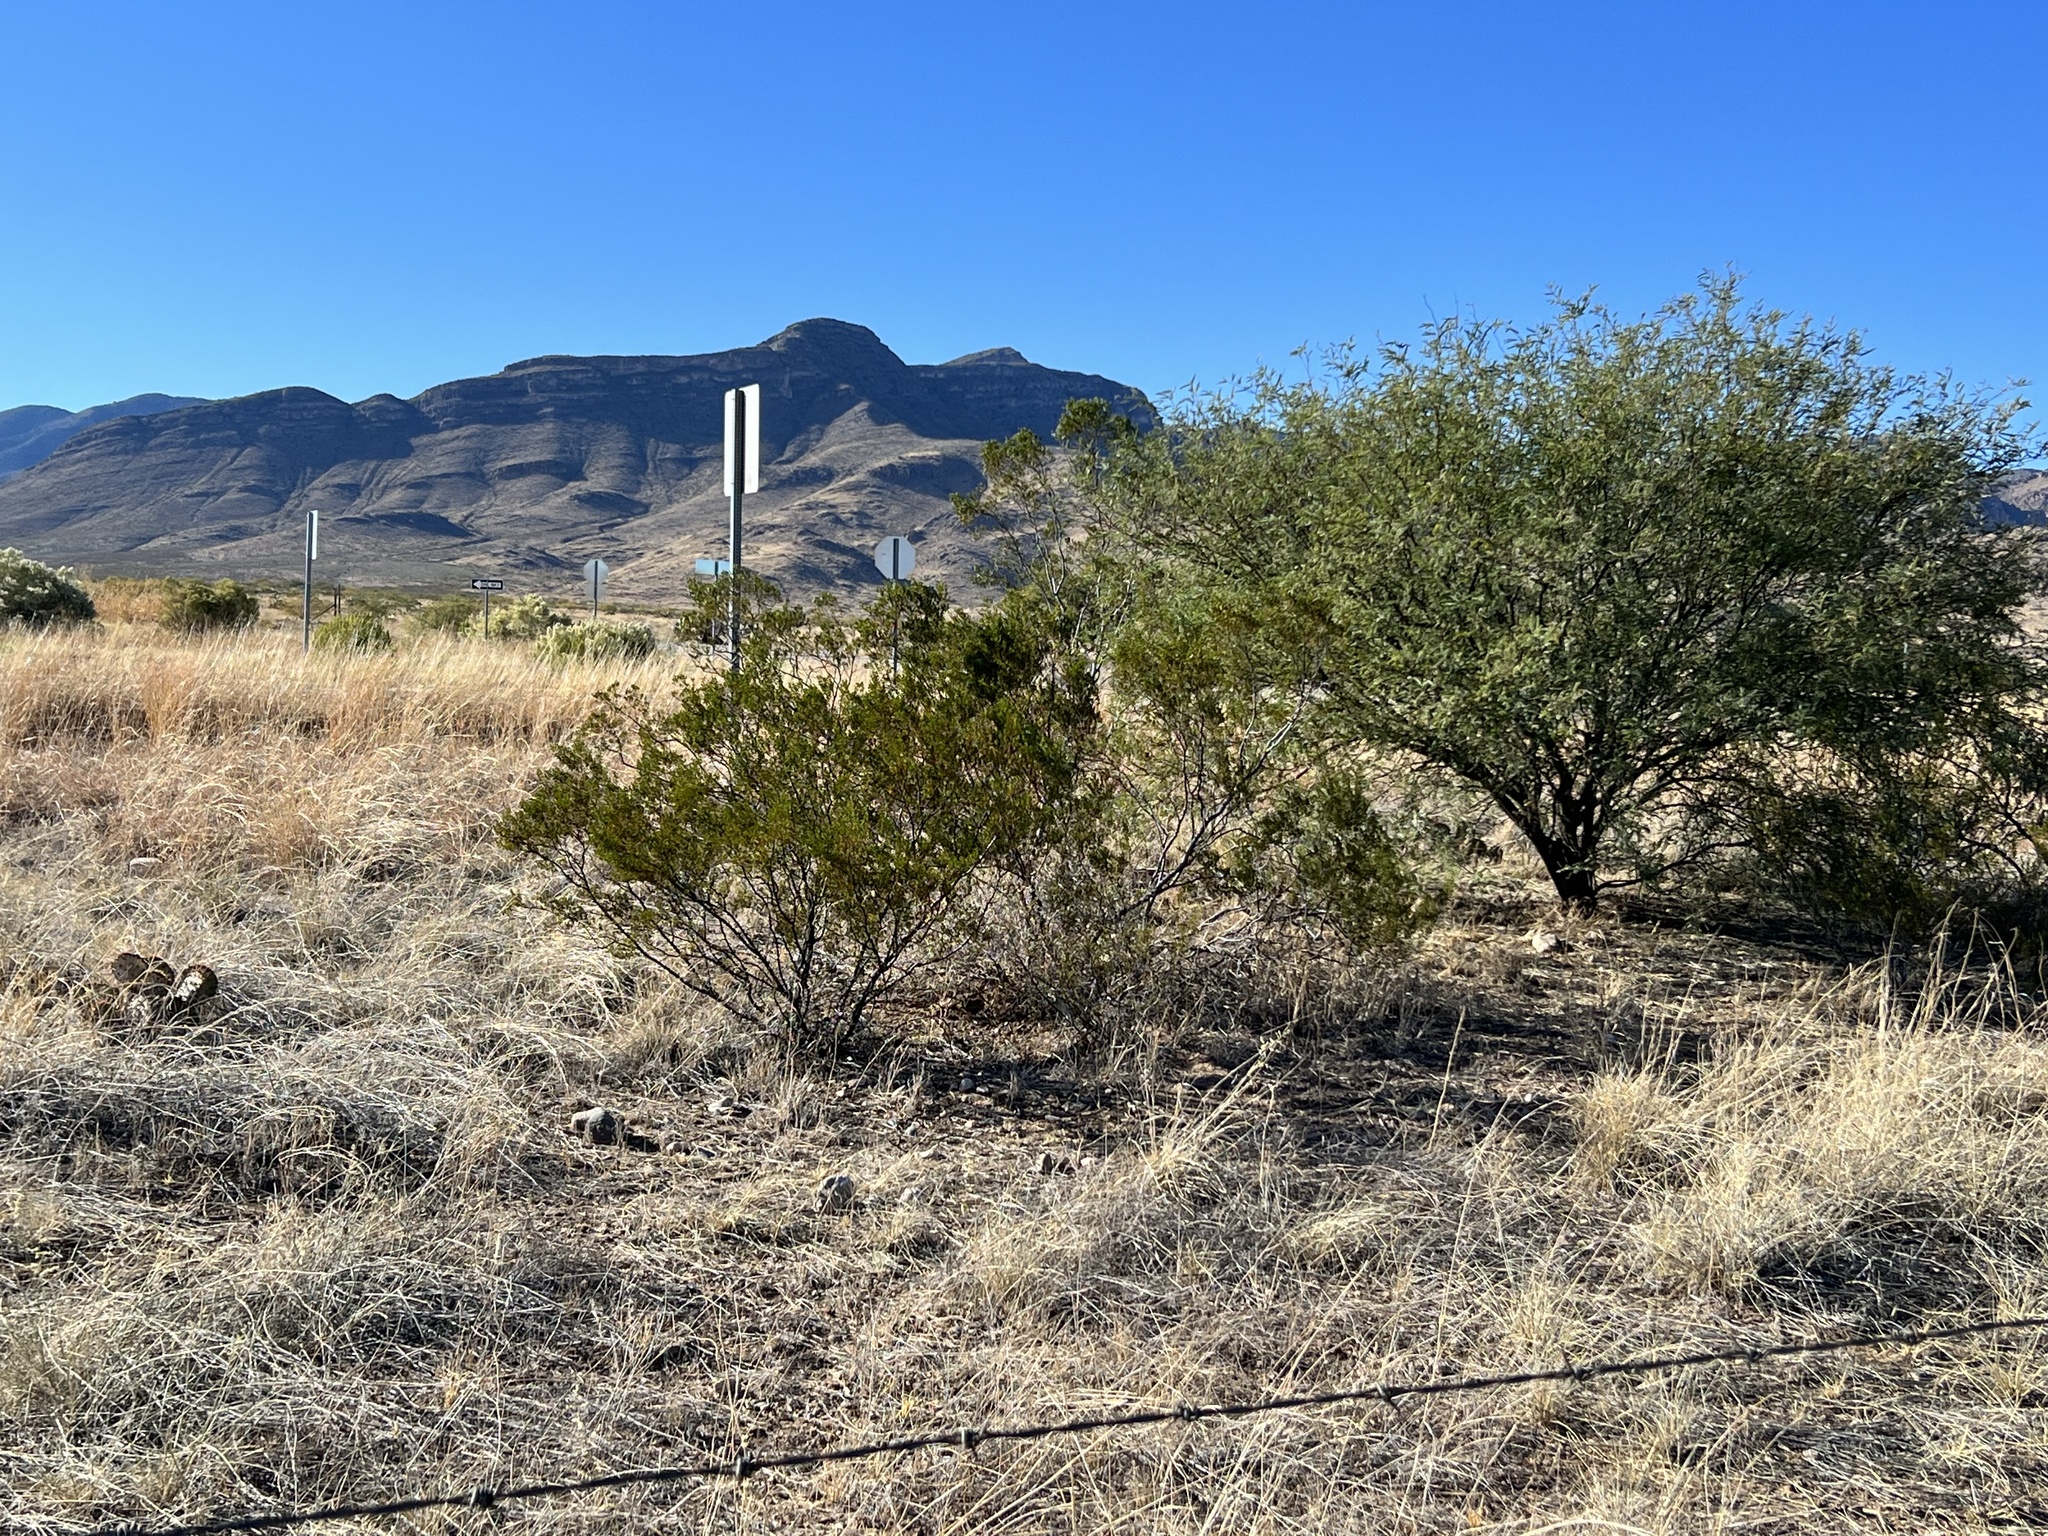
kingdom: Plantae
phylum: Tracheophyta
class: Magnoliopsida
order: Zygophyllales
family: Zygophyllaceae
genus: Larrea
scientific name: Larrea tridentata
